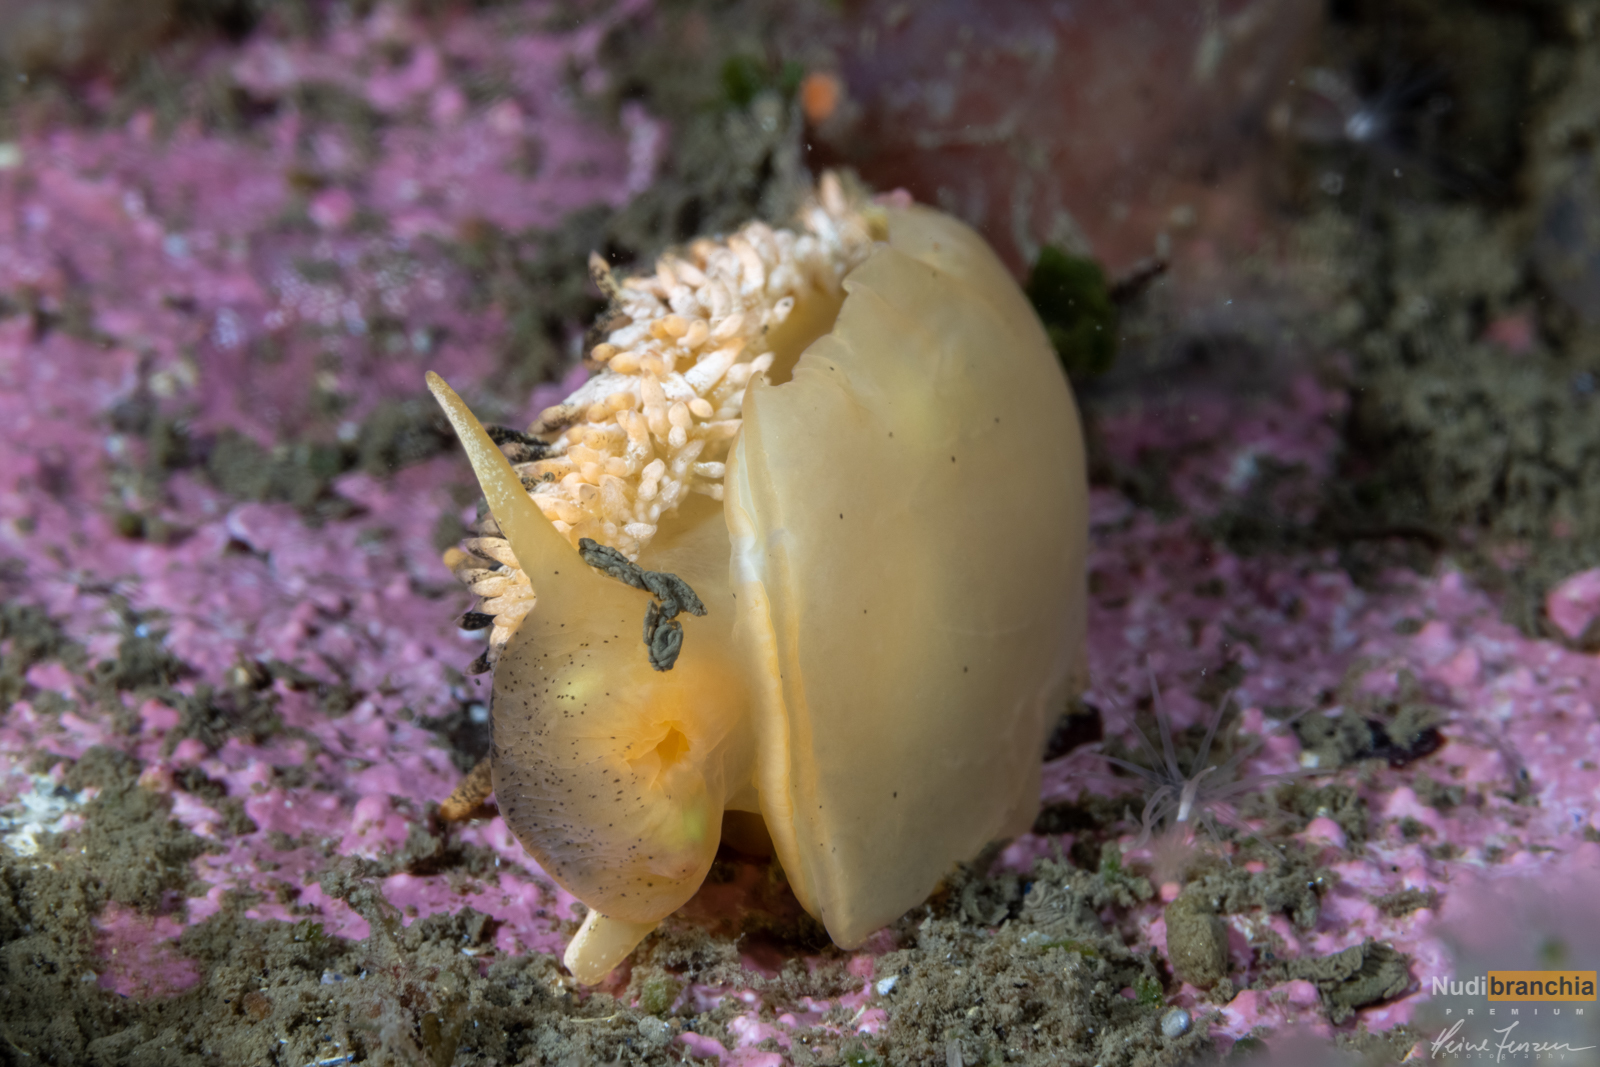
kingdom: Animalia
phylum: Mollusca
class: Gastropoda
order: Nudibranchia
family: Aeolidiidae
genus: Aeolidia
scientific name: Aeolidia papillosa
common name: Common grey sea slug
